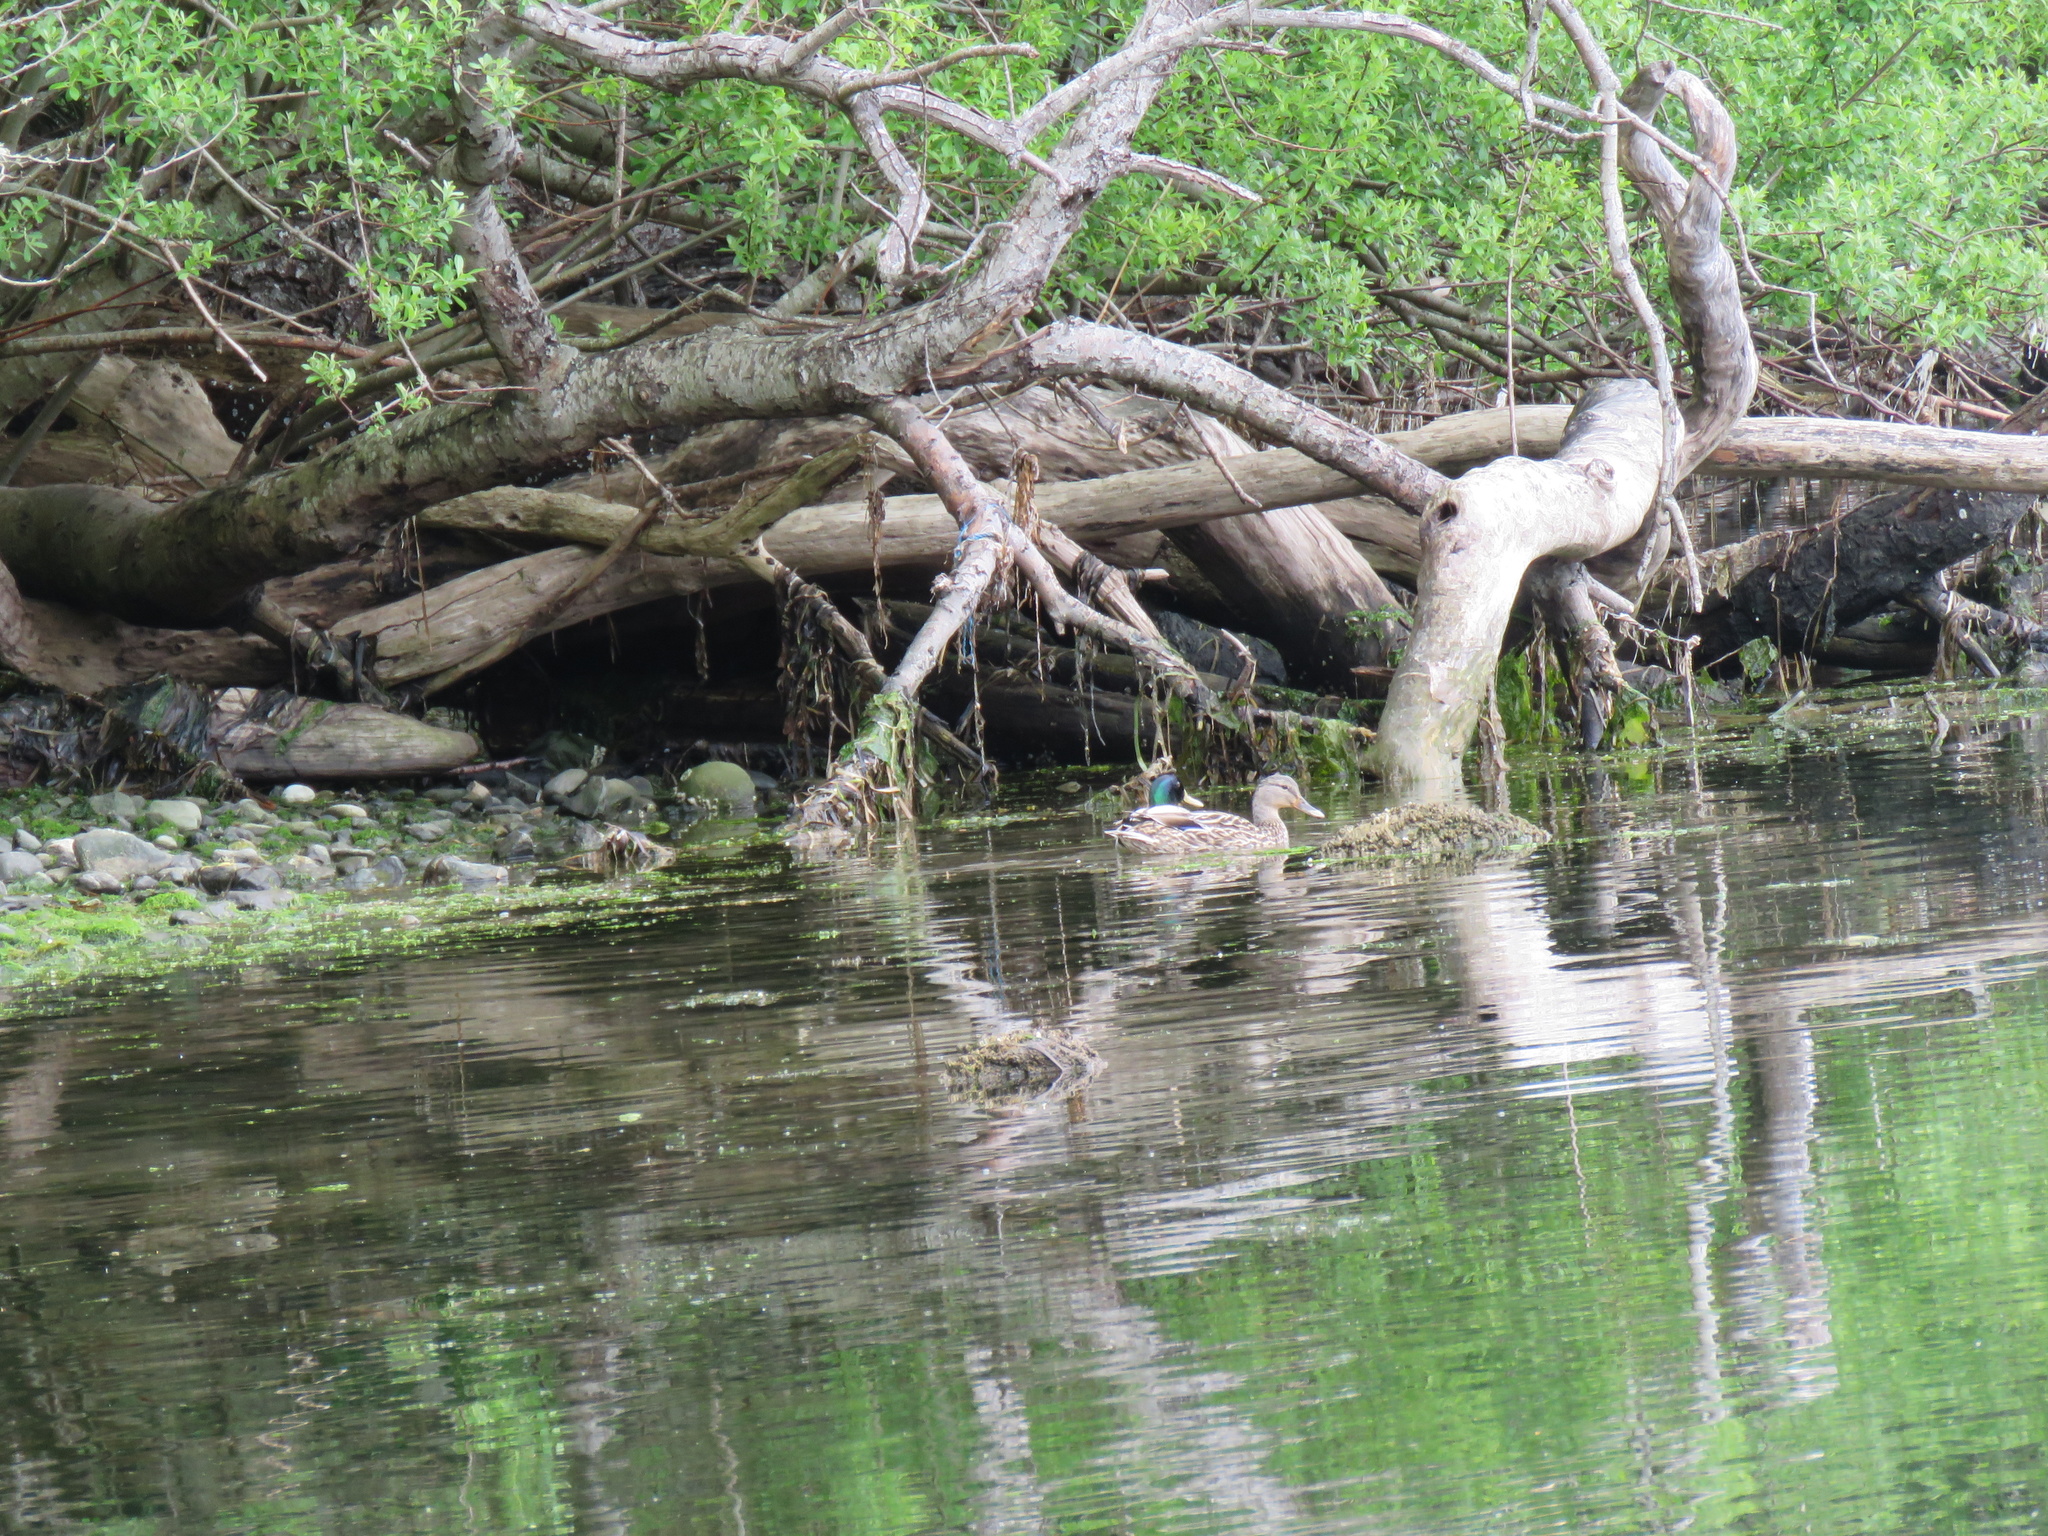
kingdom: Animalia
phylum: Chordata
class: Aves
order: Anseriformes
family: Anatidae
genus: Anas
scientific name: Anas platyrhynchos
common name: Mallard
